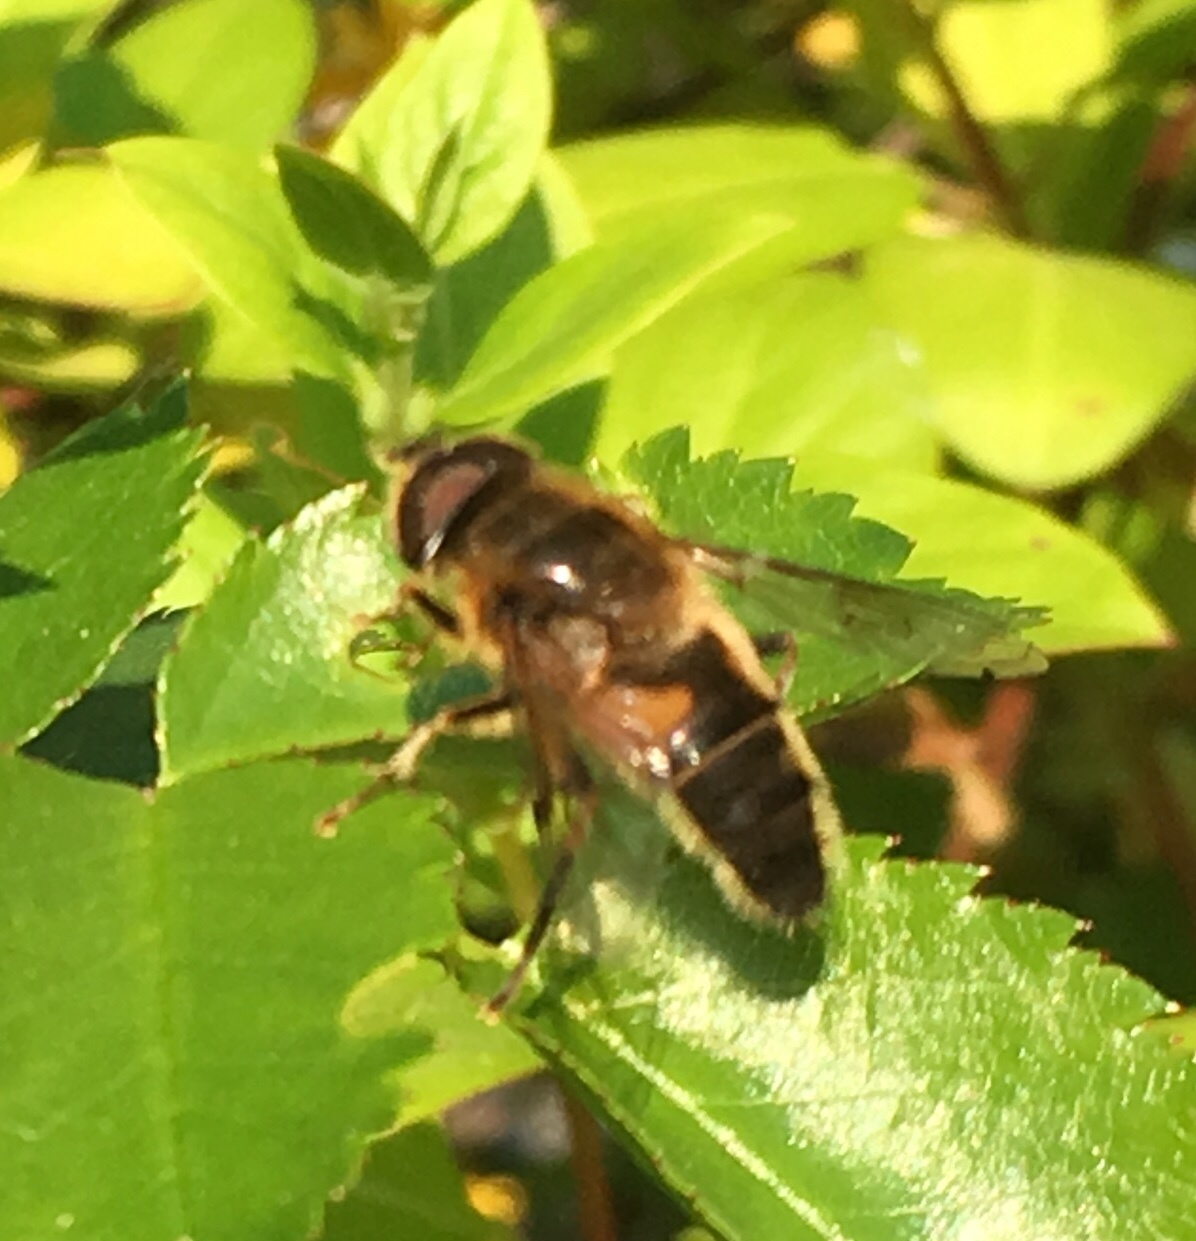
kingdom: Animalia
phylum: Arthropoda
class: Insecta
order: Diptera
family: Syrphidae
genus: Eristalis
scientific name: Eristalis pertinax
